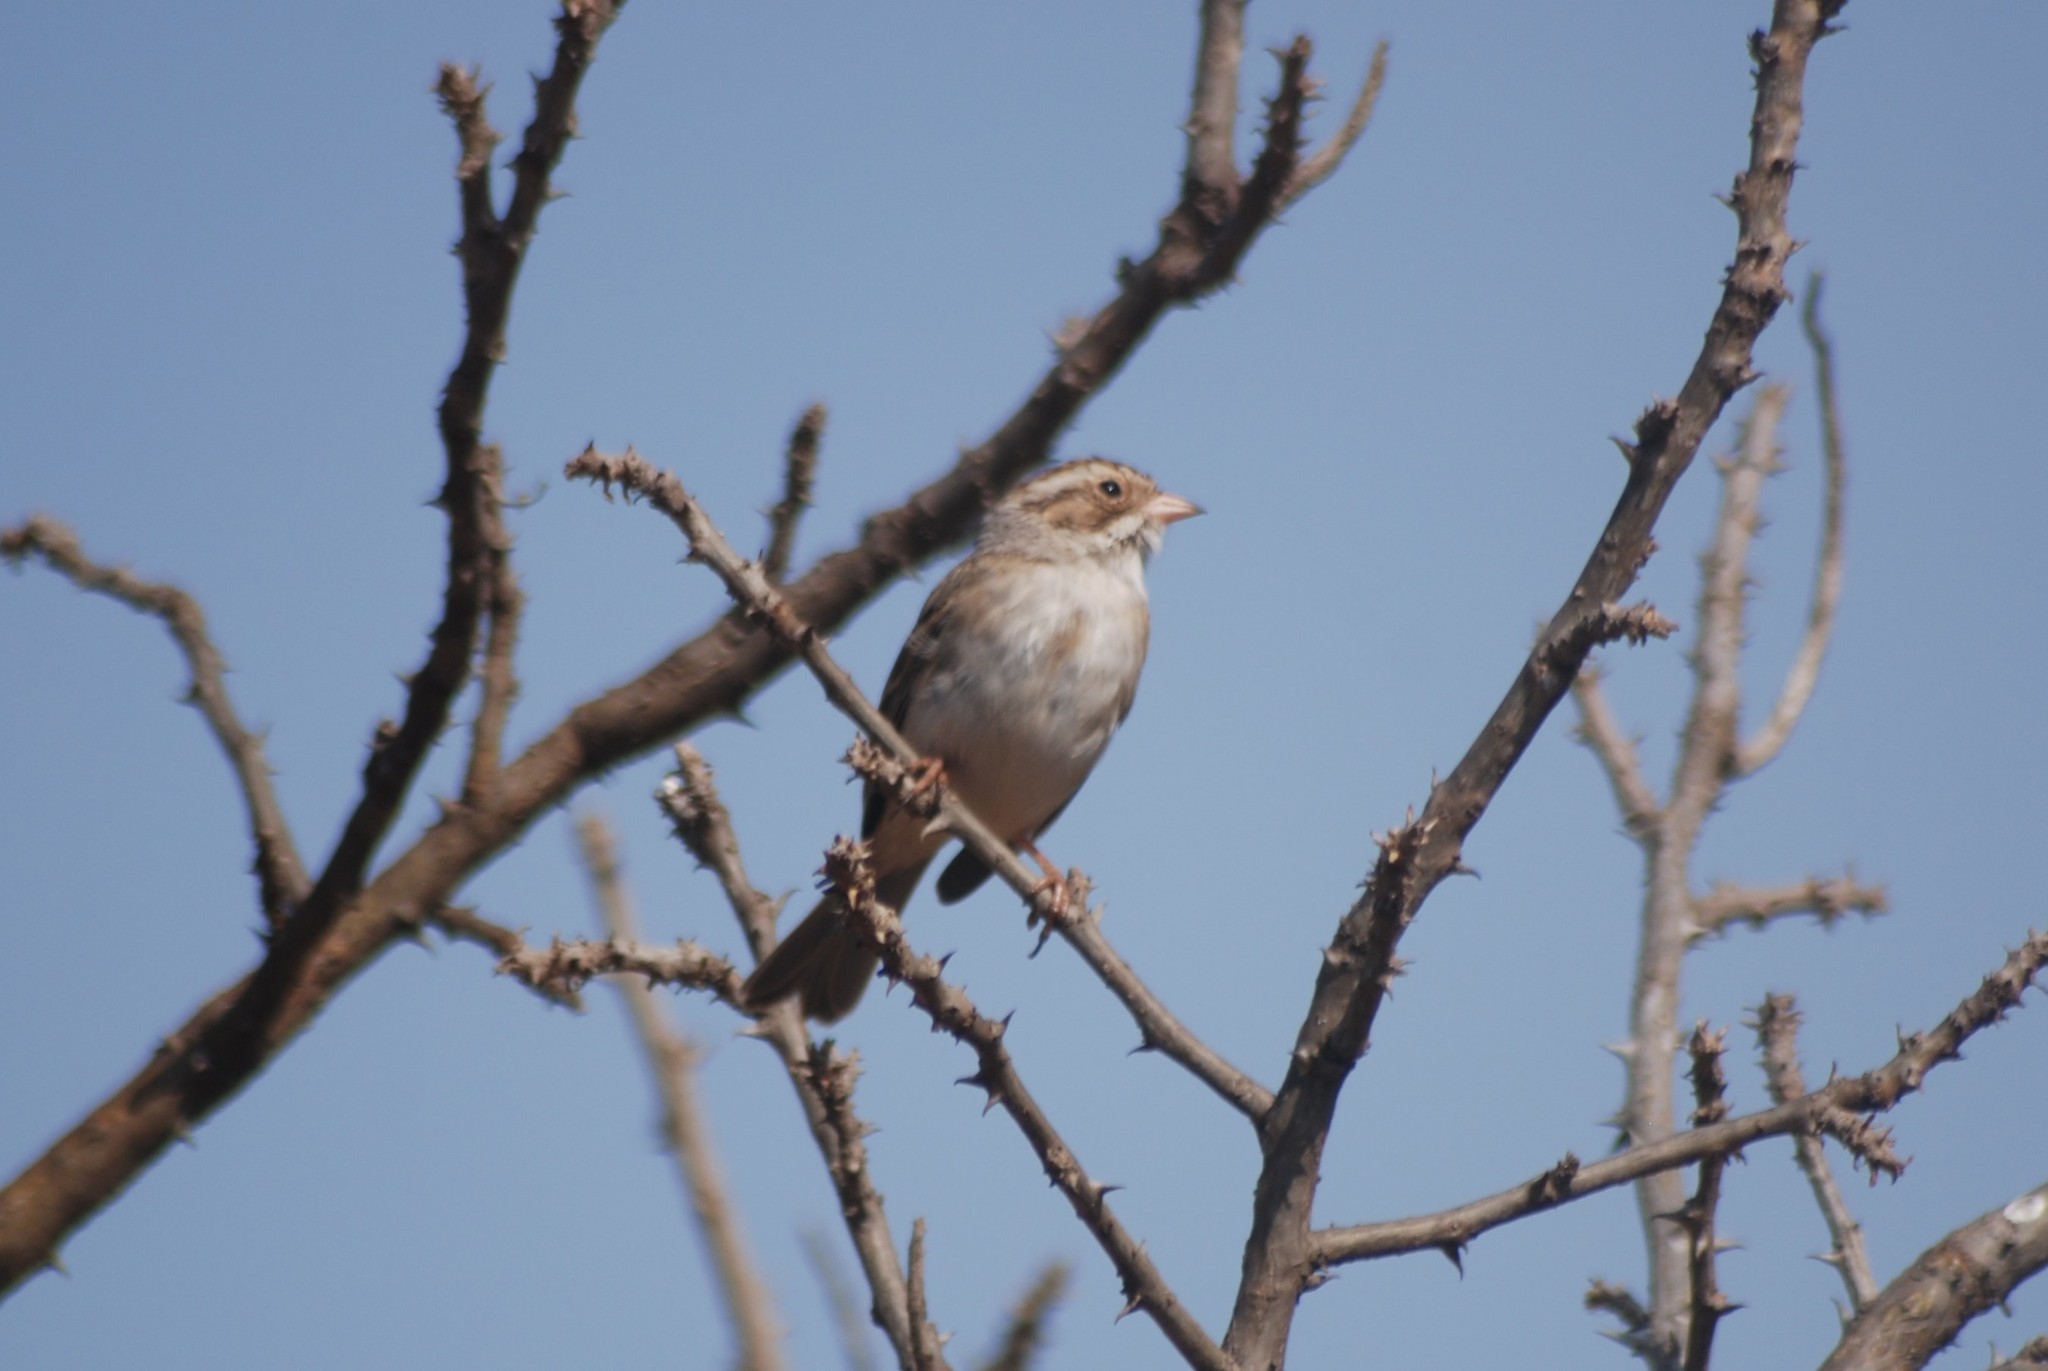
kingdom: Animalia
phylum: Chordata
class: Aves
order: Passeriformes
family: Passerellidae
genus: Spizella
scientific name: Spizella pallida
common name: Clay-colored sparrow
